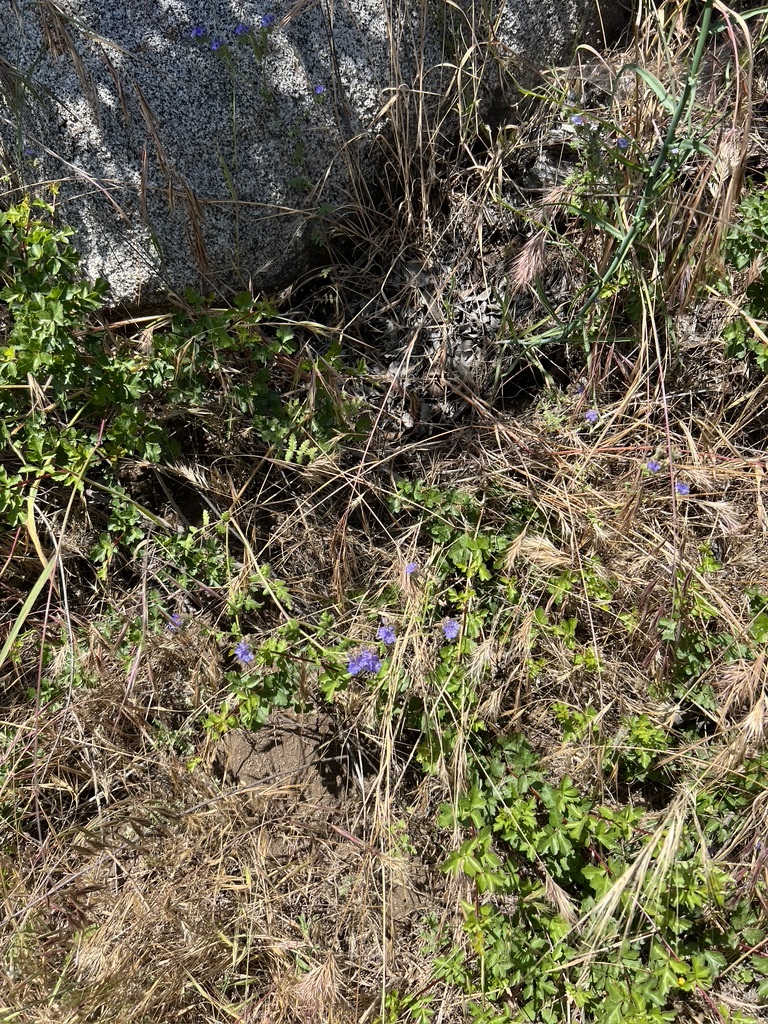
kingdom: Plantae
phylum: Tracheophyta
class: Magnoliopsida
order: Boraginales
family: Hydrophyllaceae
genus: Phacelia
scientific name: Phacelia distans
